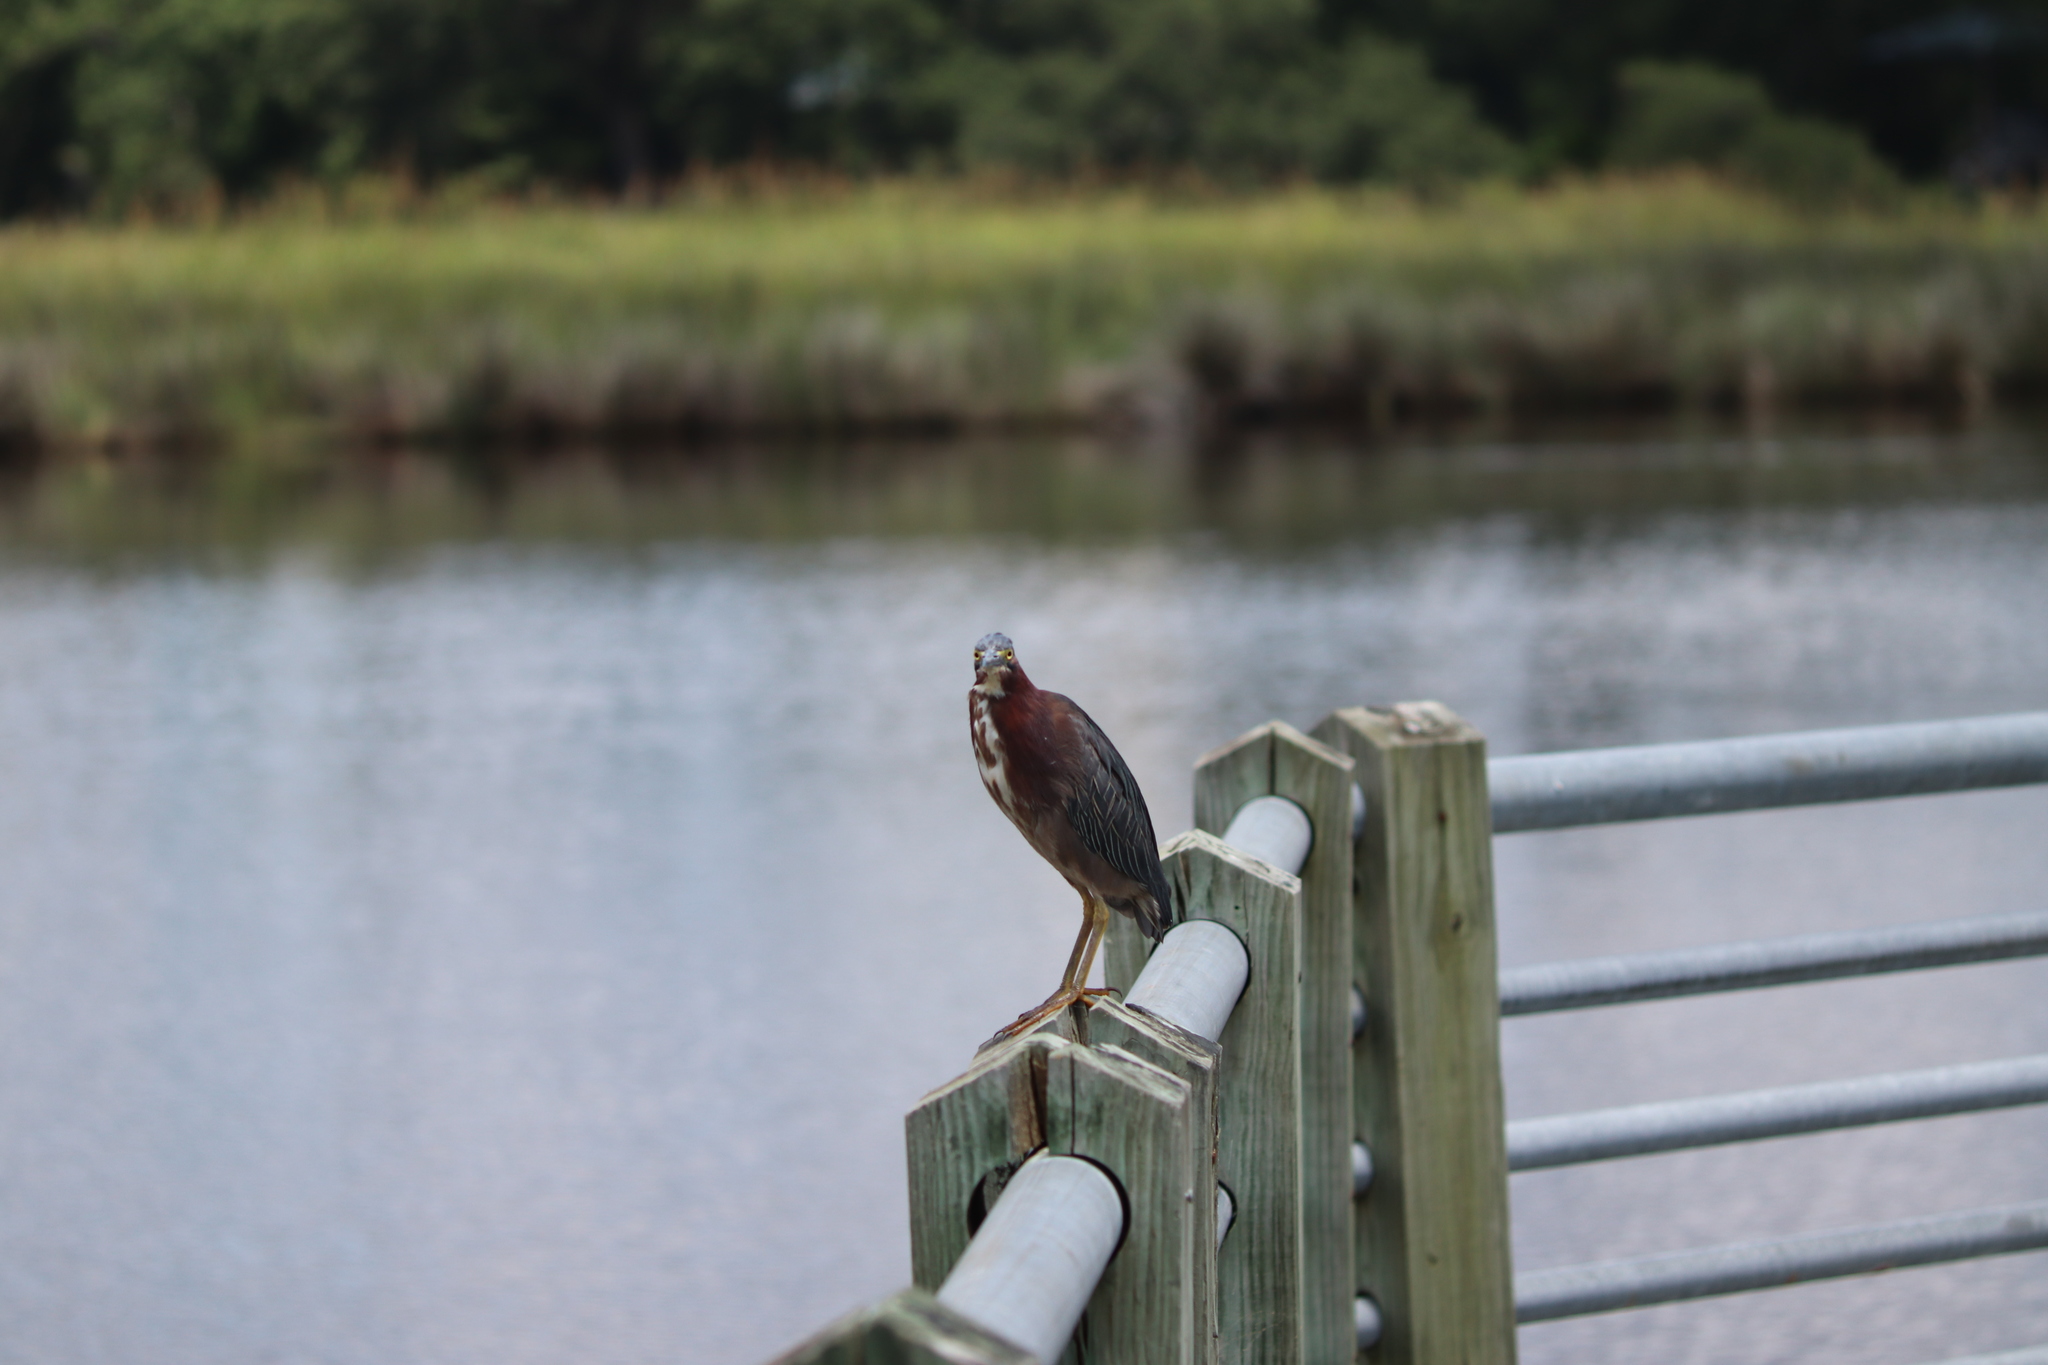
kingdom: Animalia
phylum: Chordata
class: Aves
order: Pelecaniformes
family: Ardeidae
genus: Butorides
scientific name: Butorides virescens
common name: Green heron
